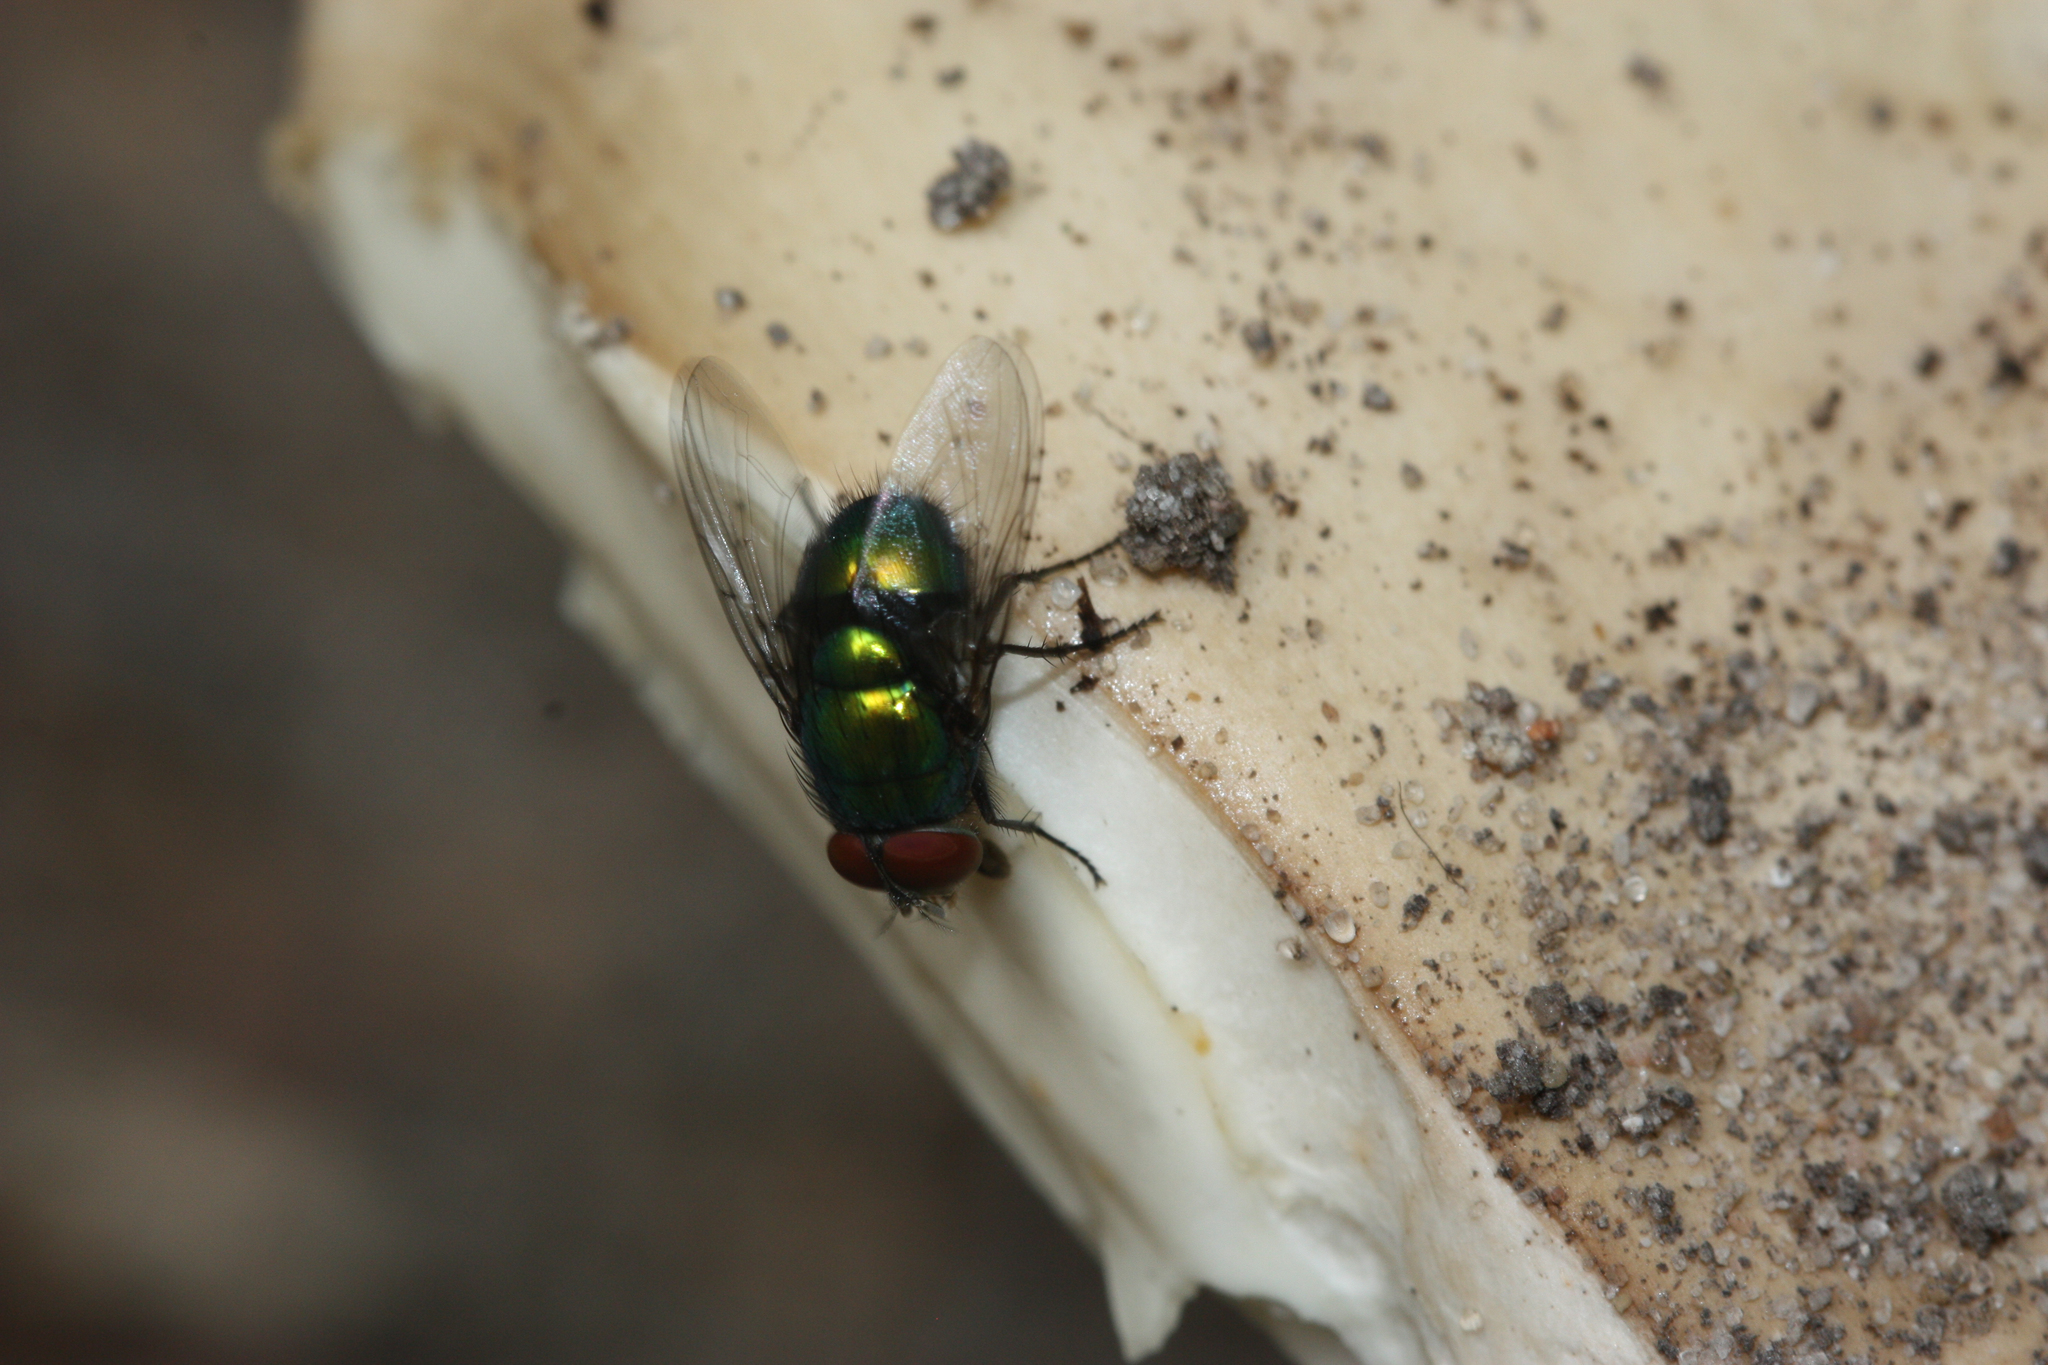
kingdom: Animalia
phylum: Arthropoda
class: Insecta
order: Diptera
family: Calliphoridae
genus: Lucilia
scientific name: Lucilia illustris
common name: Illustrious greenbottle
